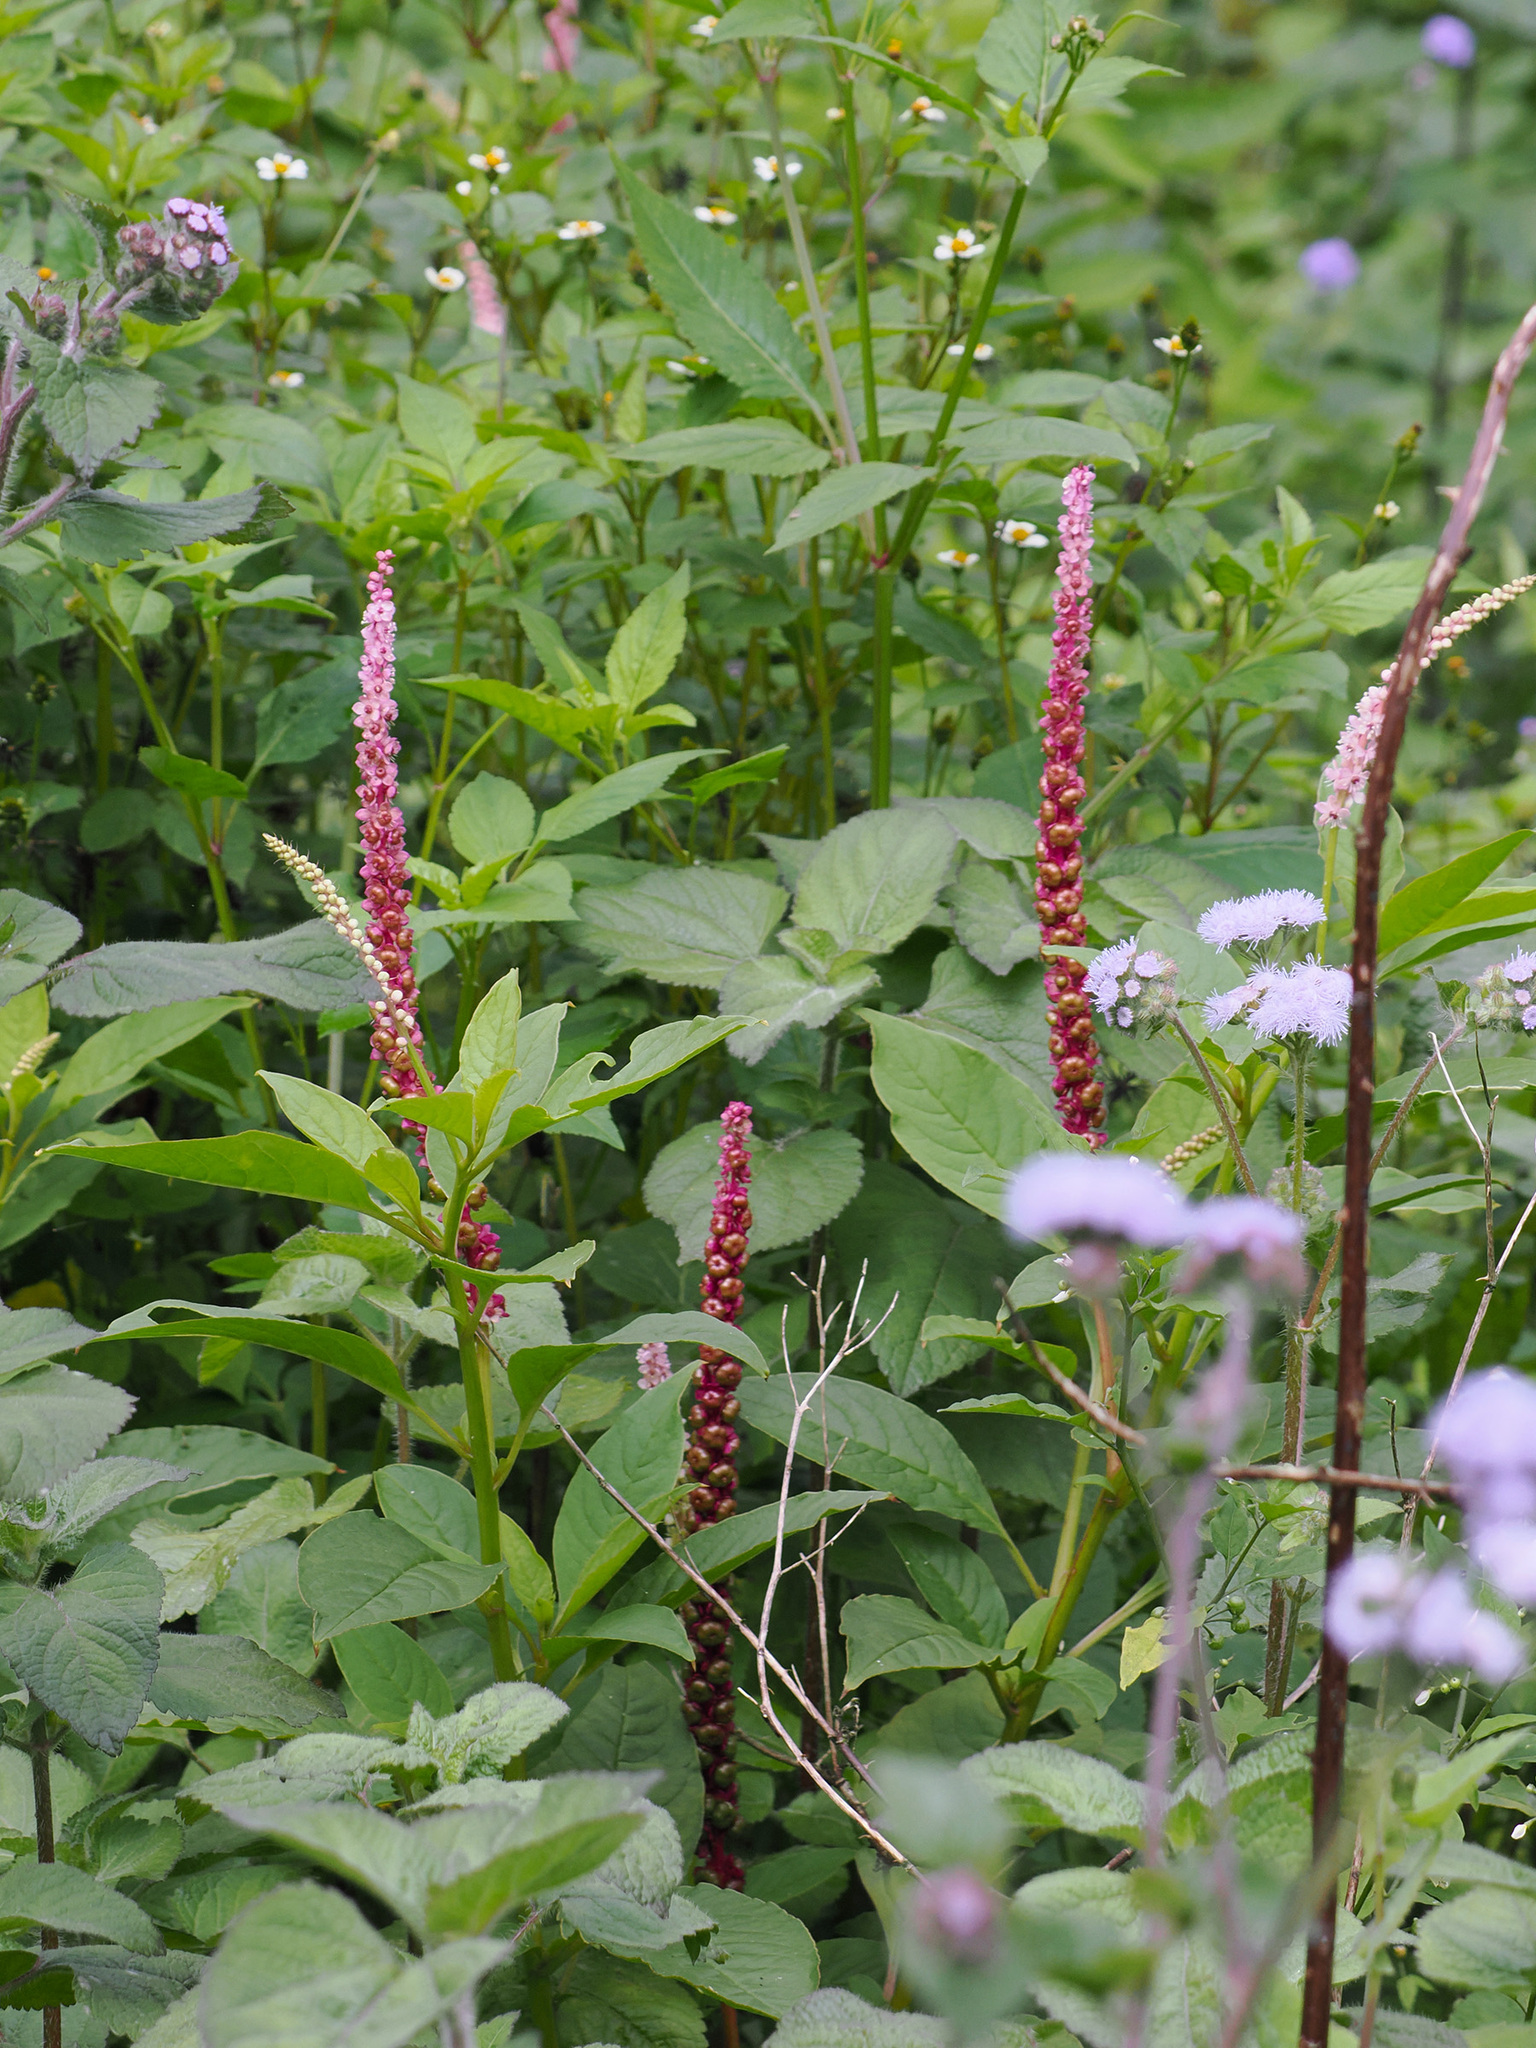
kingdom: Plantae
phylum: Tracheophyta
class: Magnoliopsida
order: Caryophyllales
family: Phytolaccaceae
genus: Phytolacca
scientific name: Phytolacca icosandra
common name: Button pokeweed
